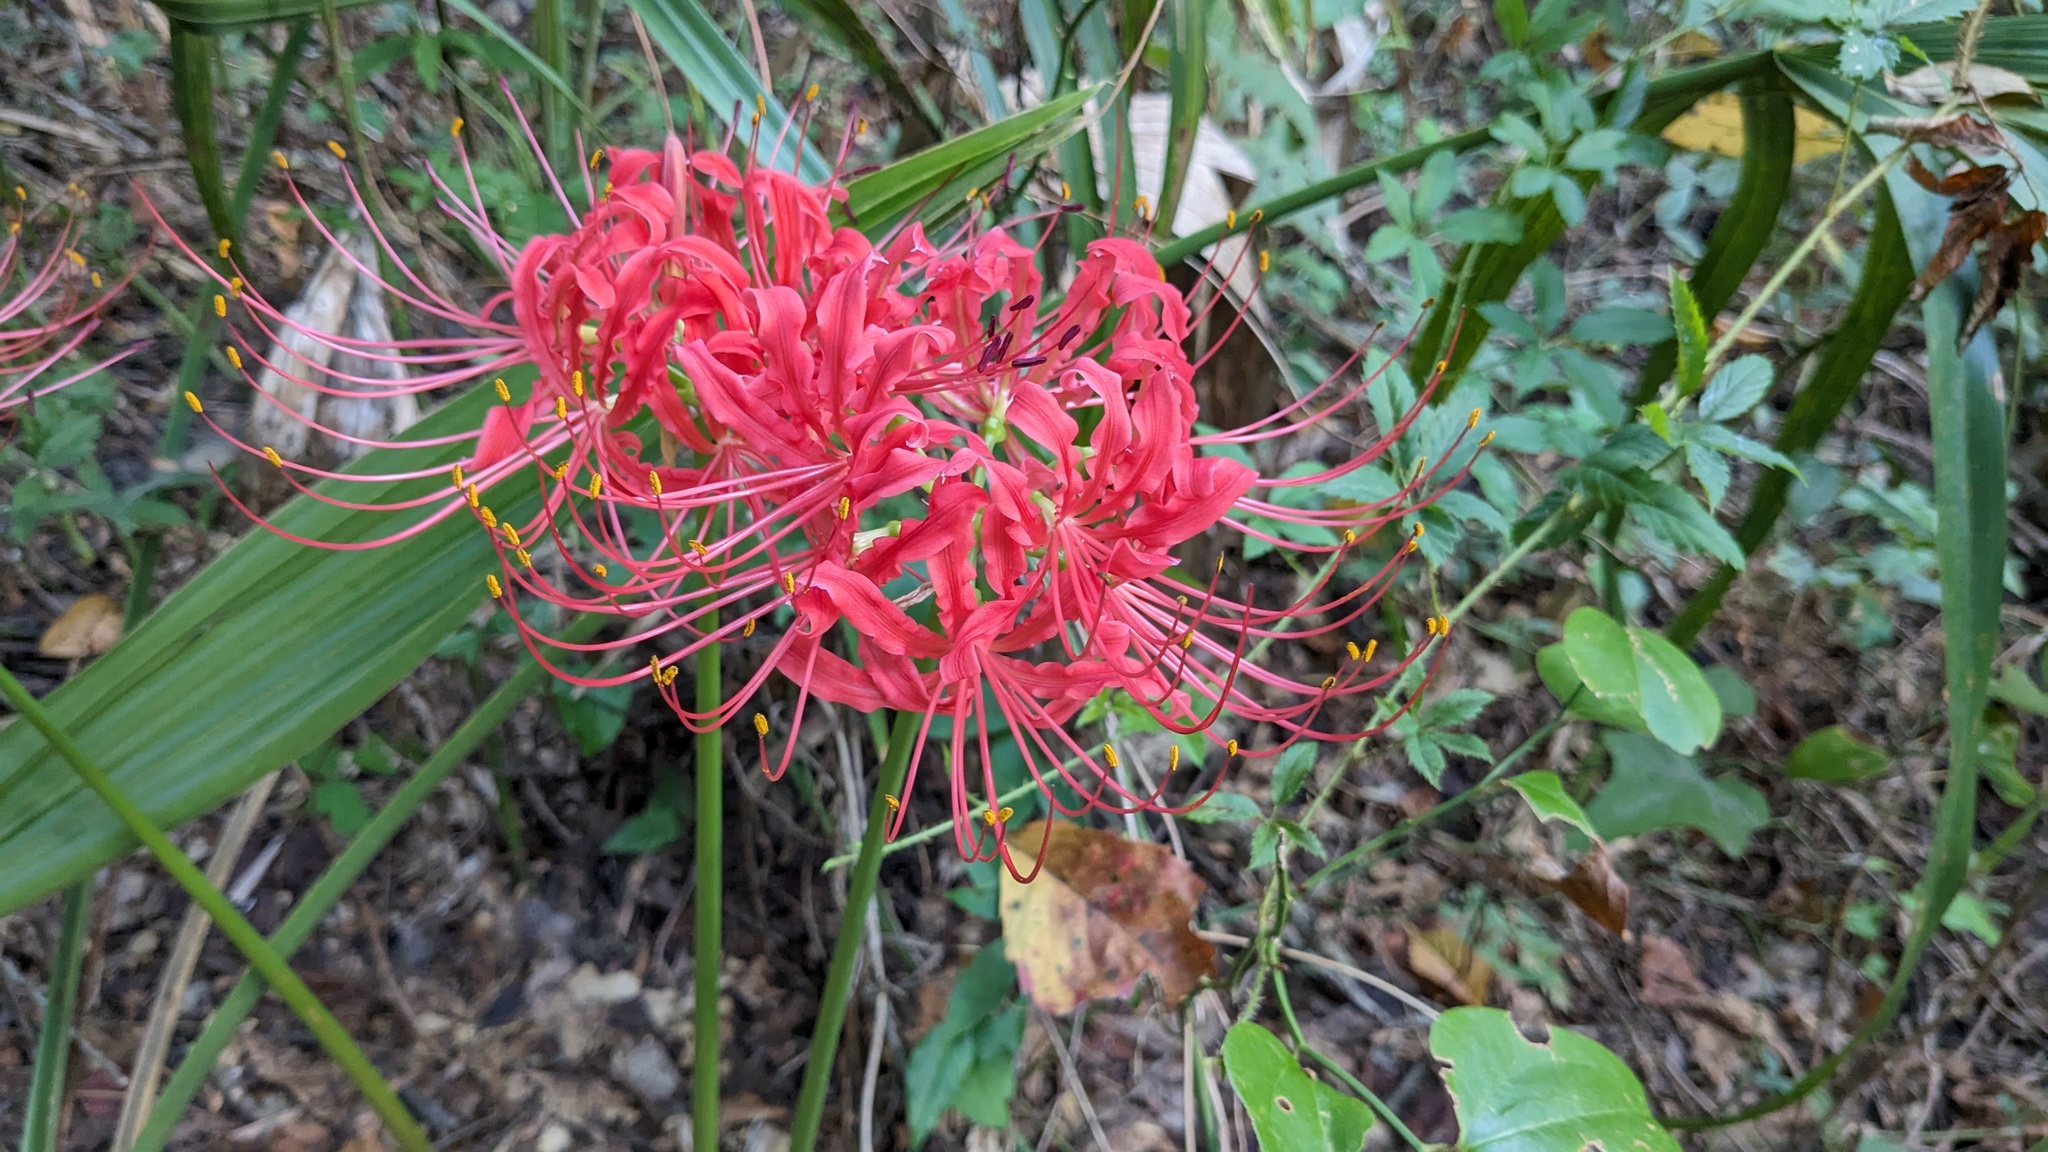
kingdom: Plantae
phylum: Tracheophyta
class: Liliopsida
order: Asparagales
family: Amaryllidaceae
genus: Lycoris
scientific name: Lycoris radiata
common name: Red spider lily
